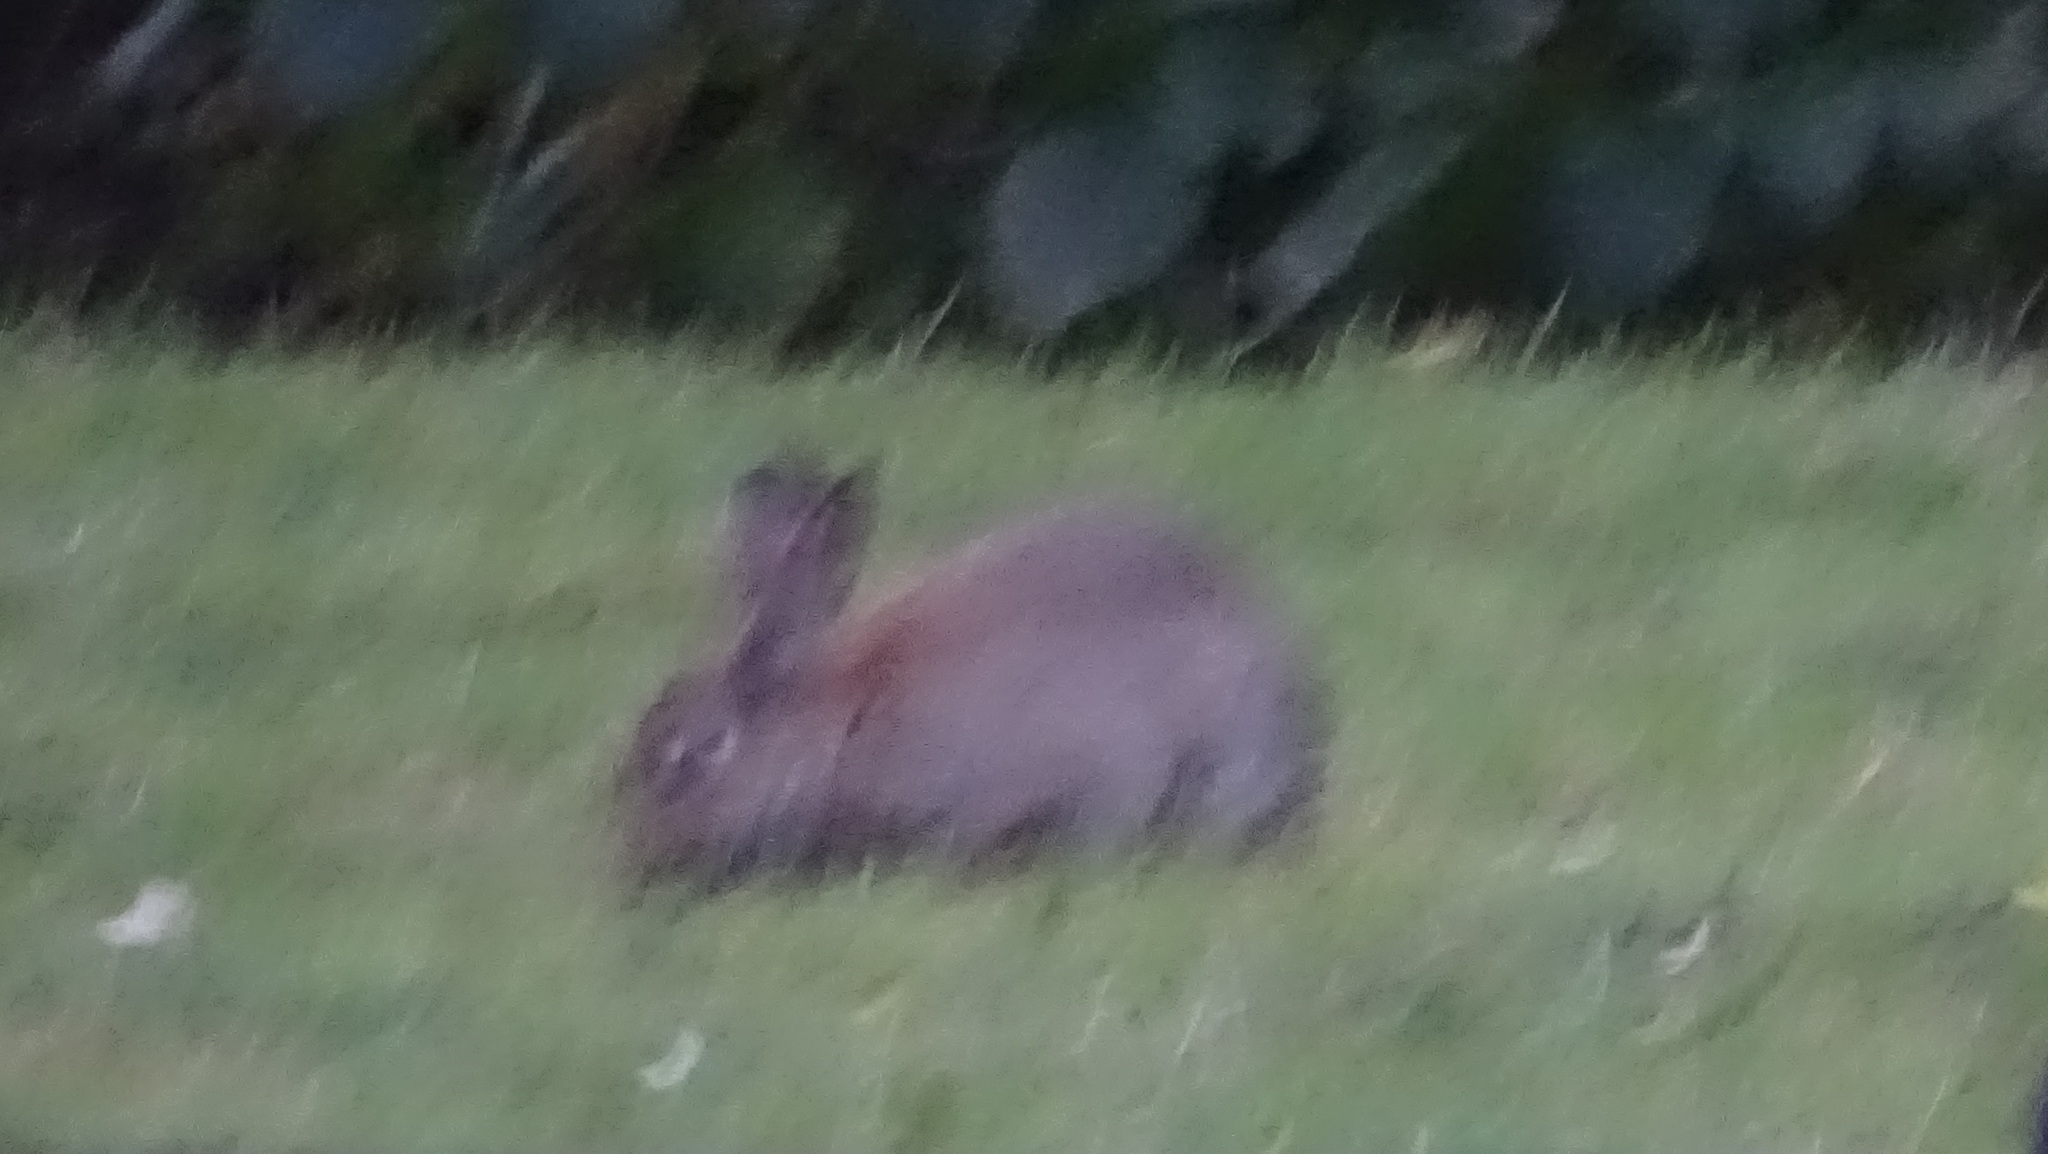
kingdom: Animalia
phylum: Chordata
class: Mammalia
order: Lagomorpha
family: Leporidae
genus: Oryctolagus
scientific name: Oryctolagus cuniculus
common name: European rabbit
